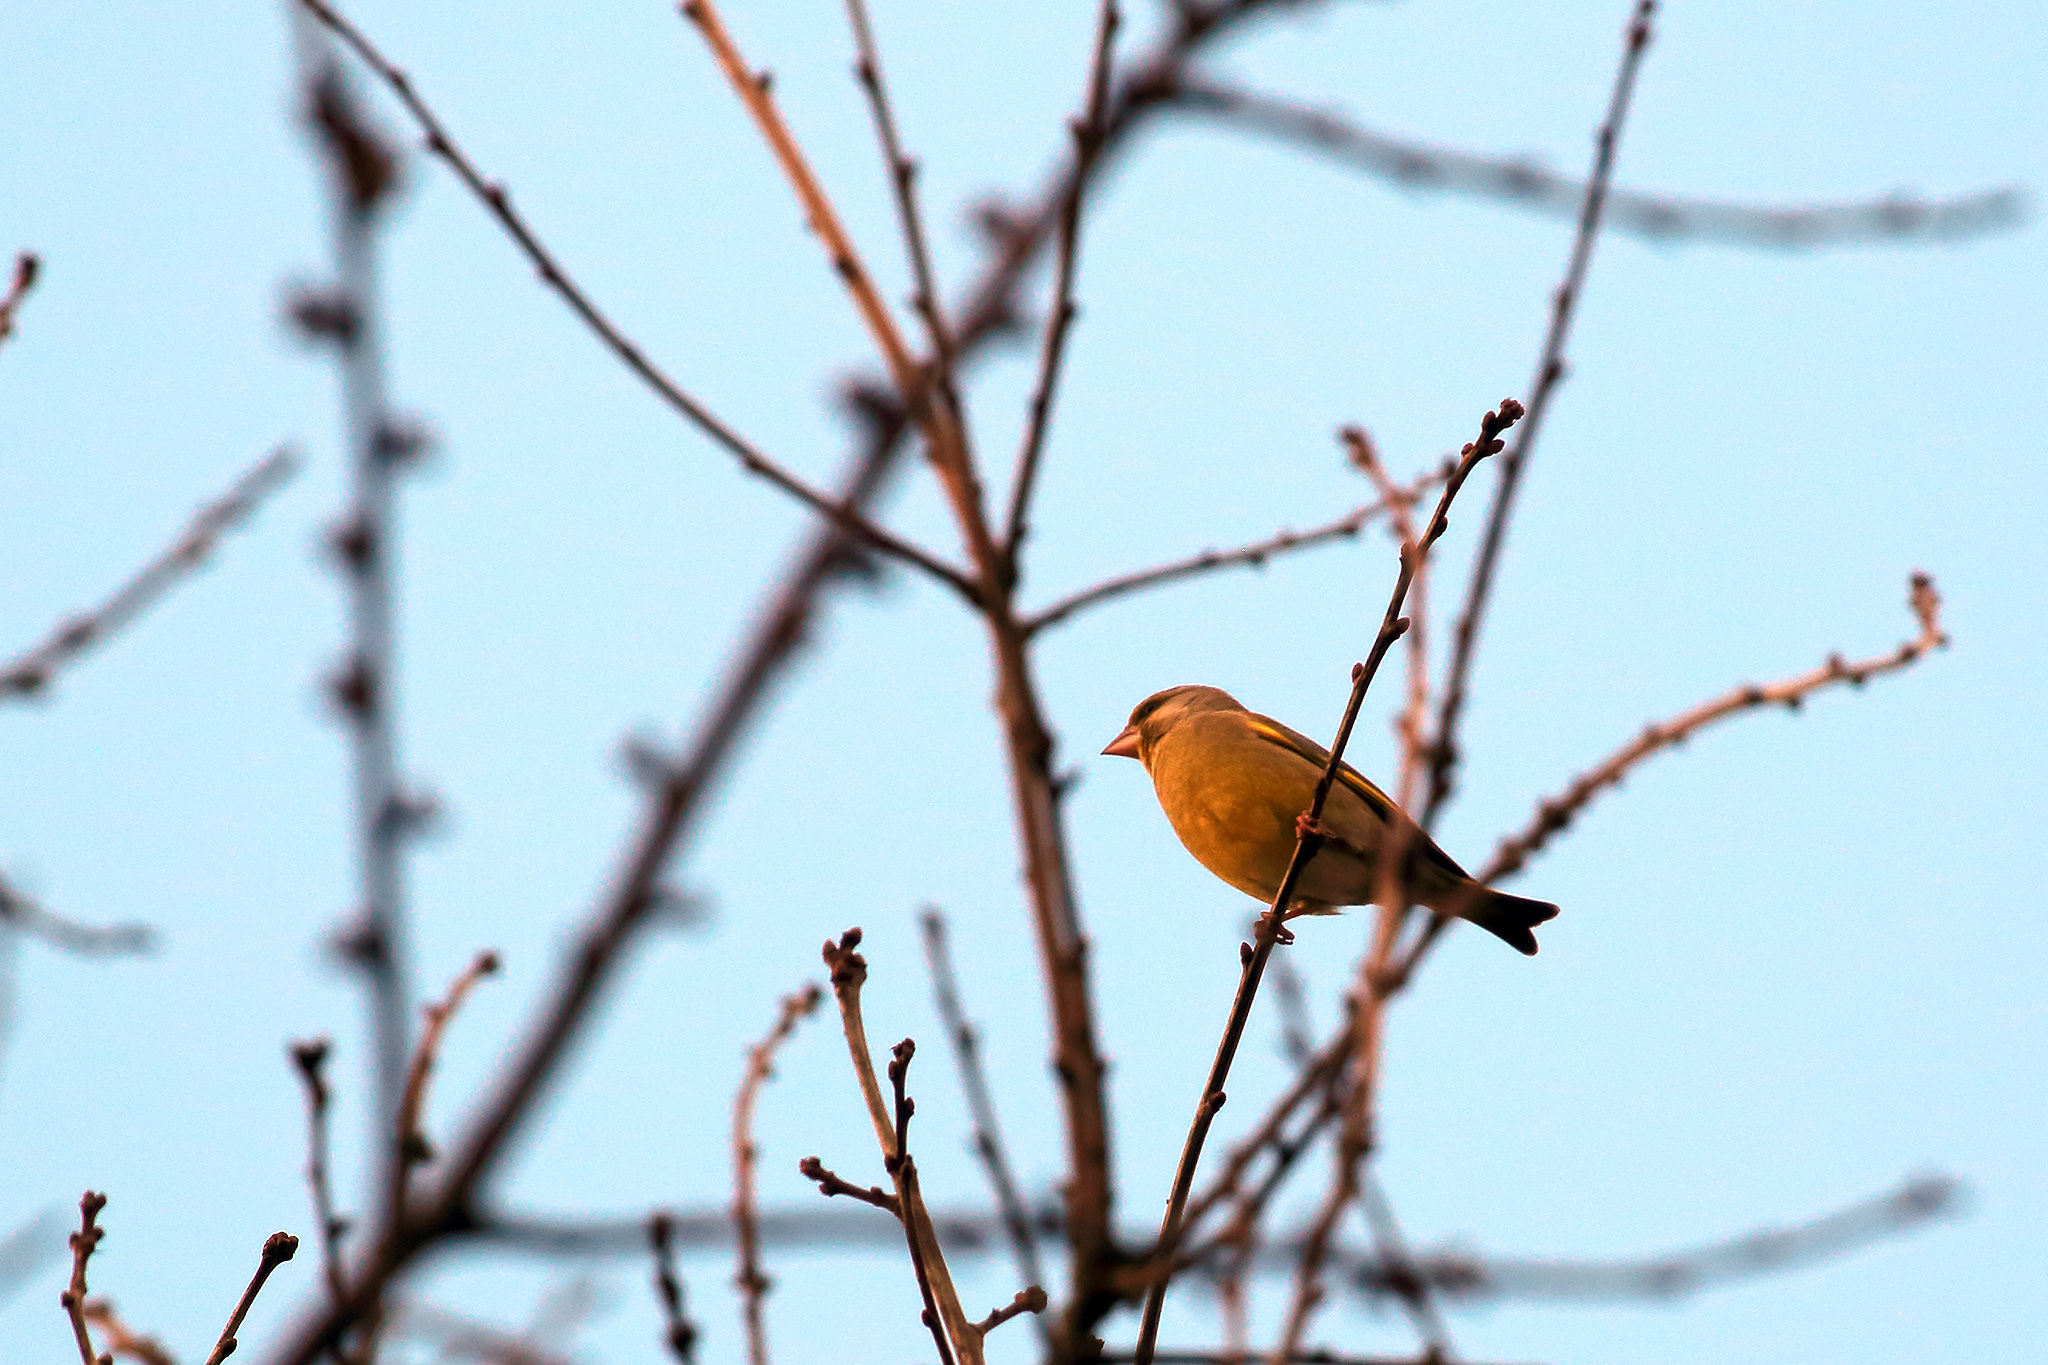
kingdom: Plantae
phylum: Tracheophyta
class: Liliopsida
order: Poales
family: Poaceae
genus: Chloris
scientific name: Chloris chloris
